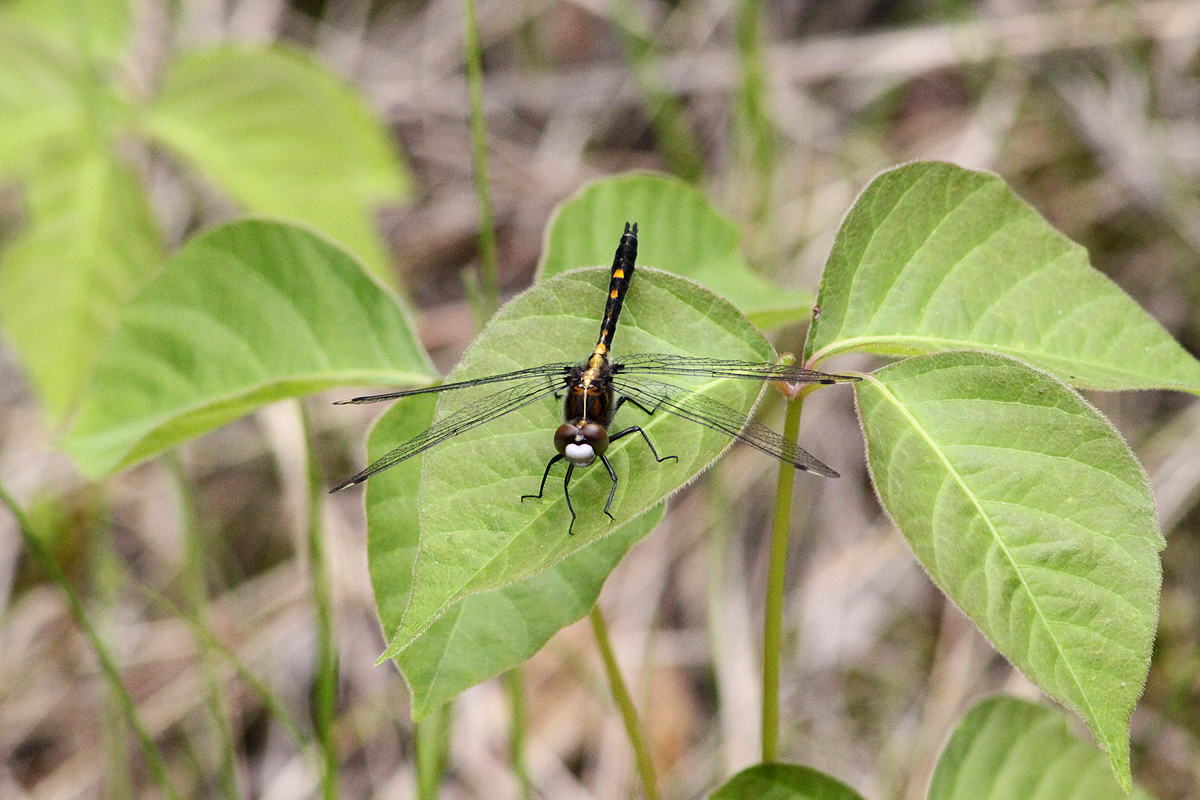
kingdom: Animalia
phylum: Arthropoda
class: Insecta
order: Odonata
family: Libellulidae
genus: Leucorrhinia
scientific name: Leucorrhinia intacta
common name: Dot-tailed whiteface
